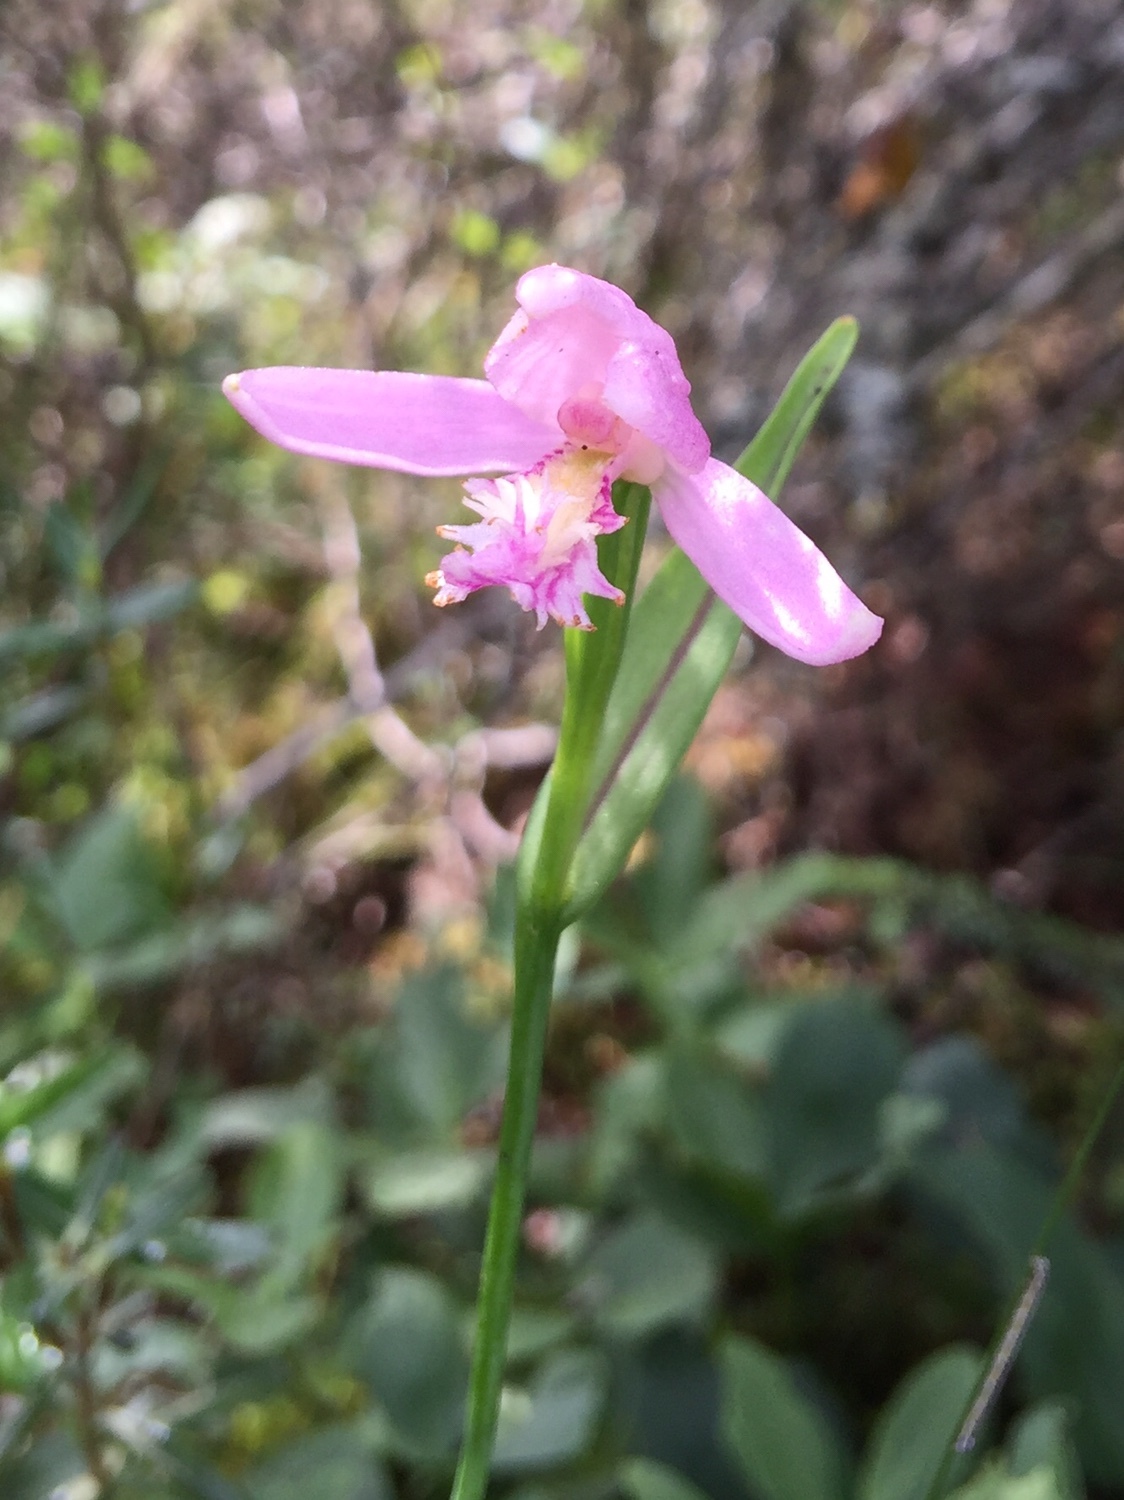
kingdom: Plantae
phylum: Tracheophyta
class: Liliopsida
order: Asparagales
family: Orchidaceae
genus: Pogonia
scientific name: Pogonia ophioglossoides
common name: Rose pogonia
